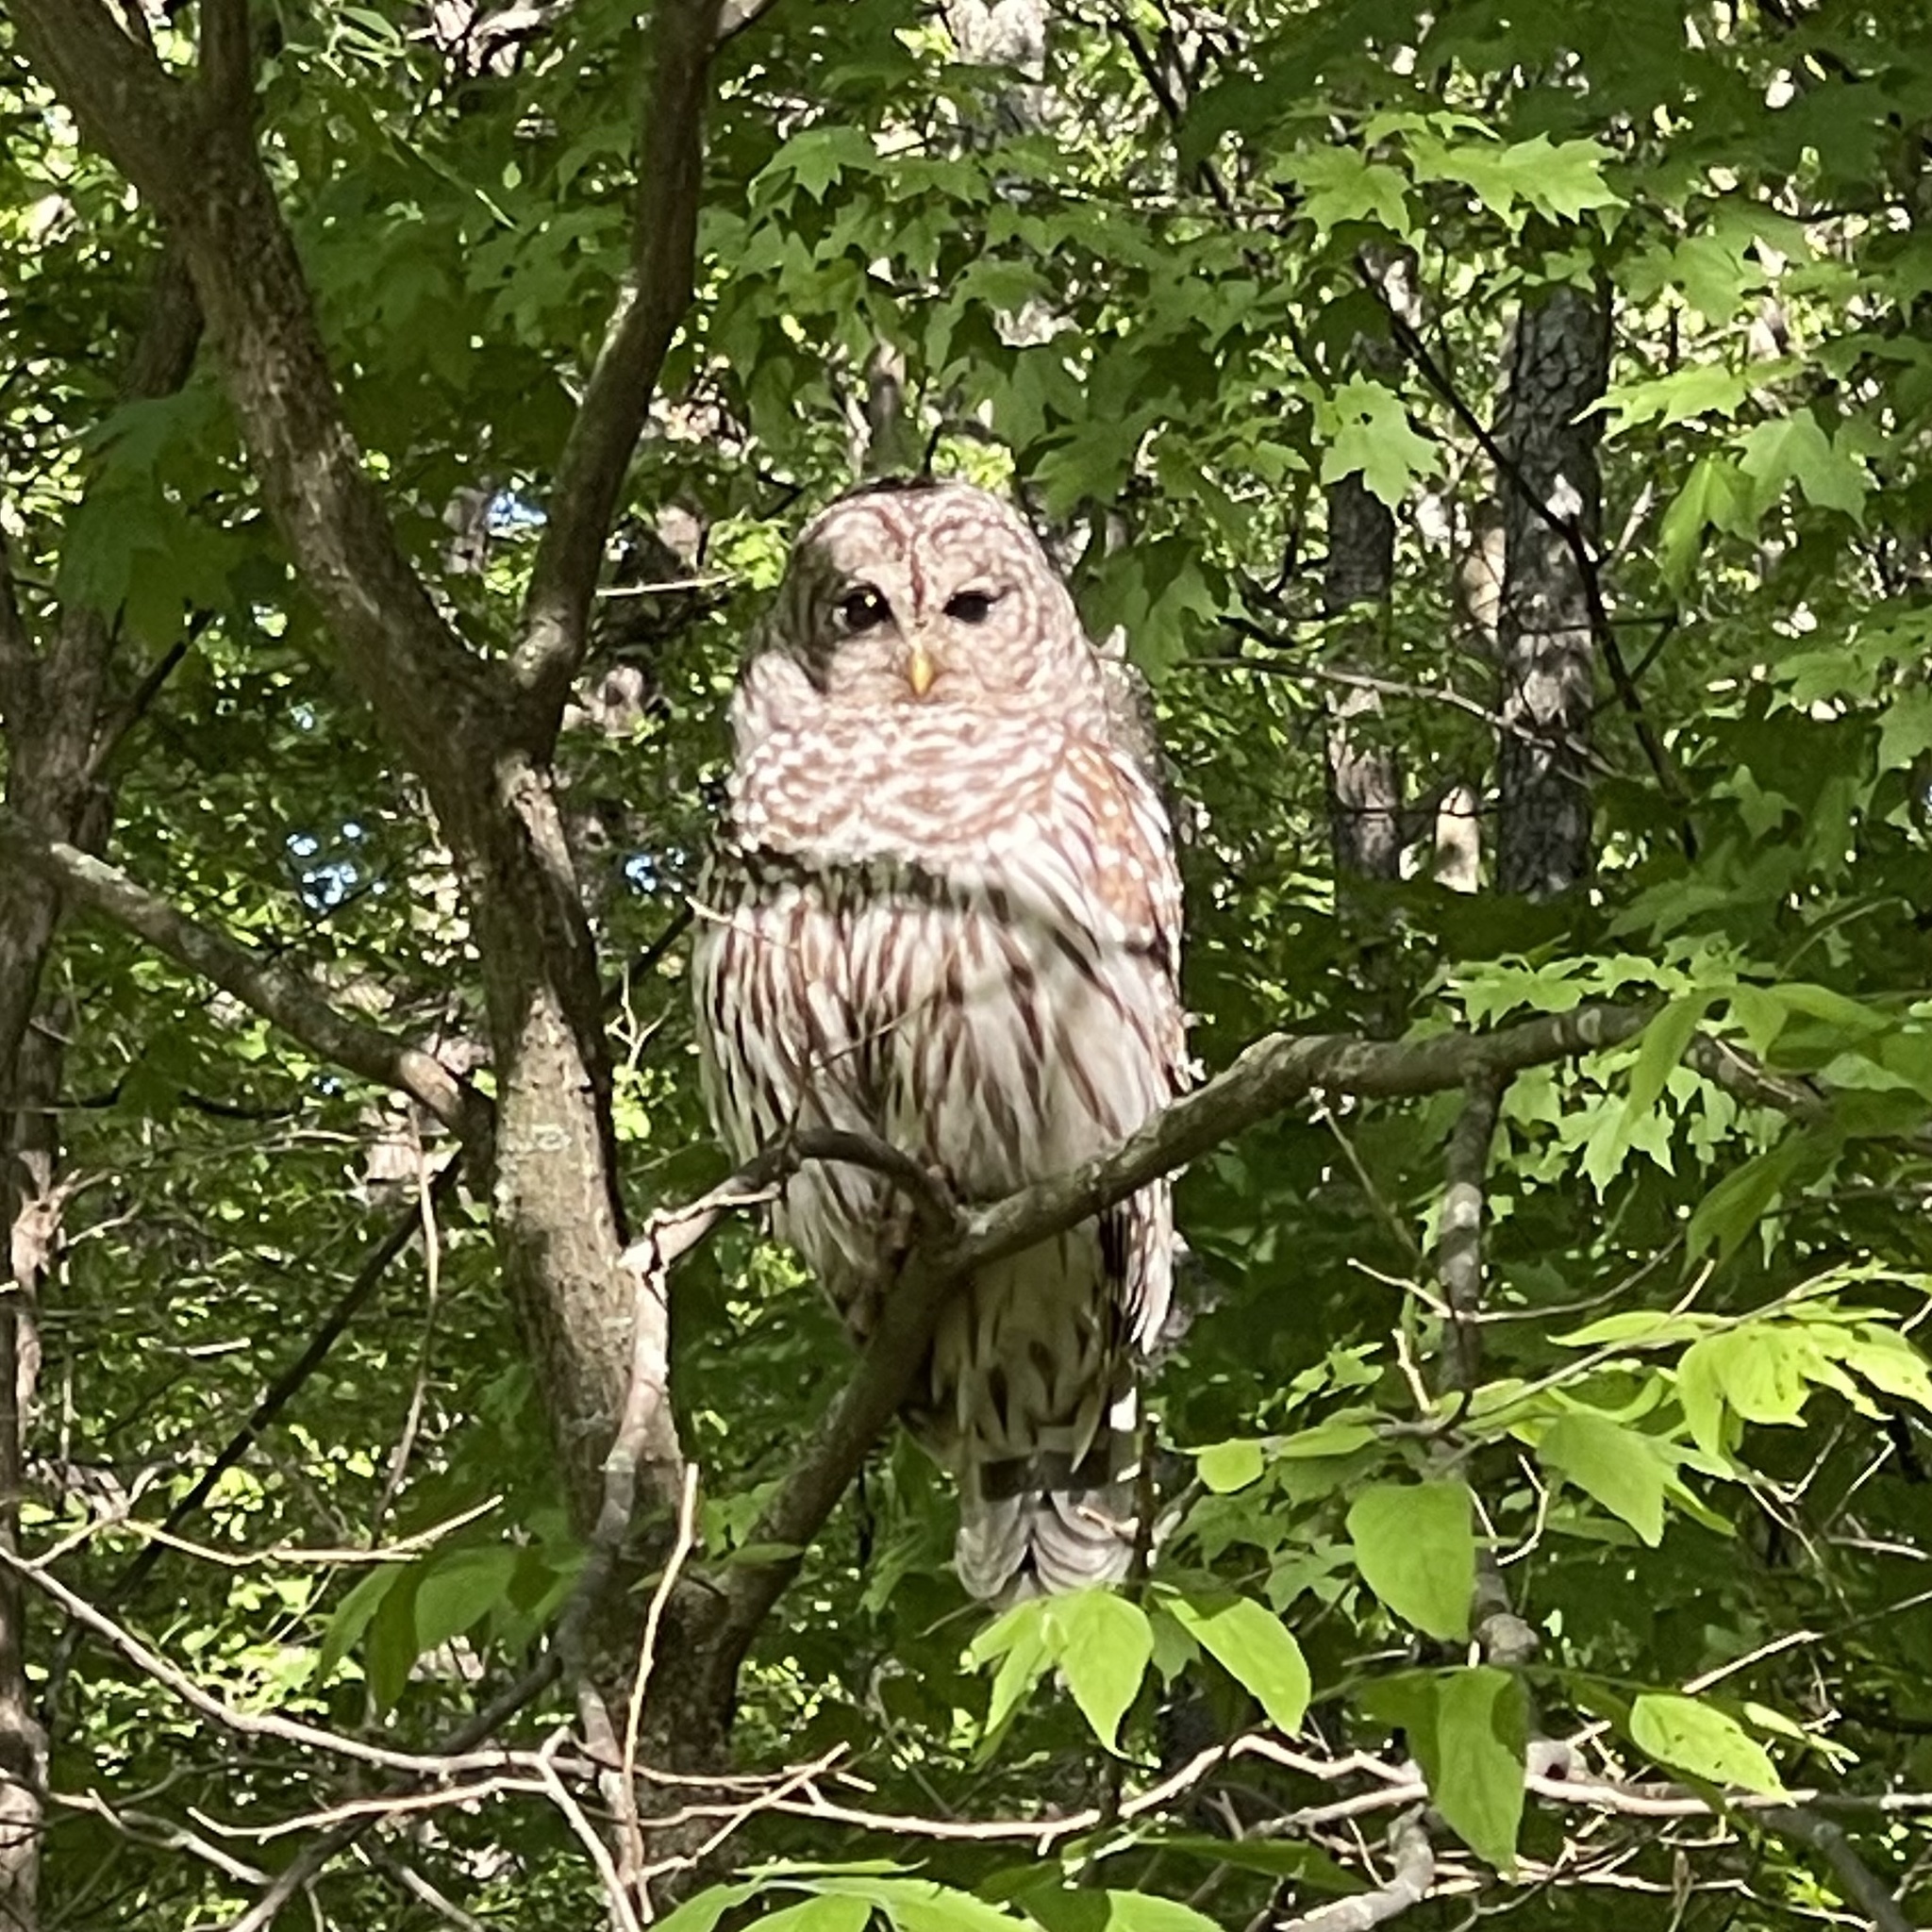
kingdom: Animalia
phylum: Chordata
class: Aves
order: Strigiformes
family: Strigidae
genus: Strix
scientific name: Strix varia
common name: Barred owl
